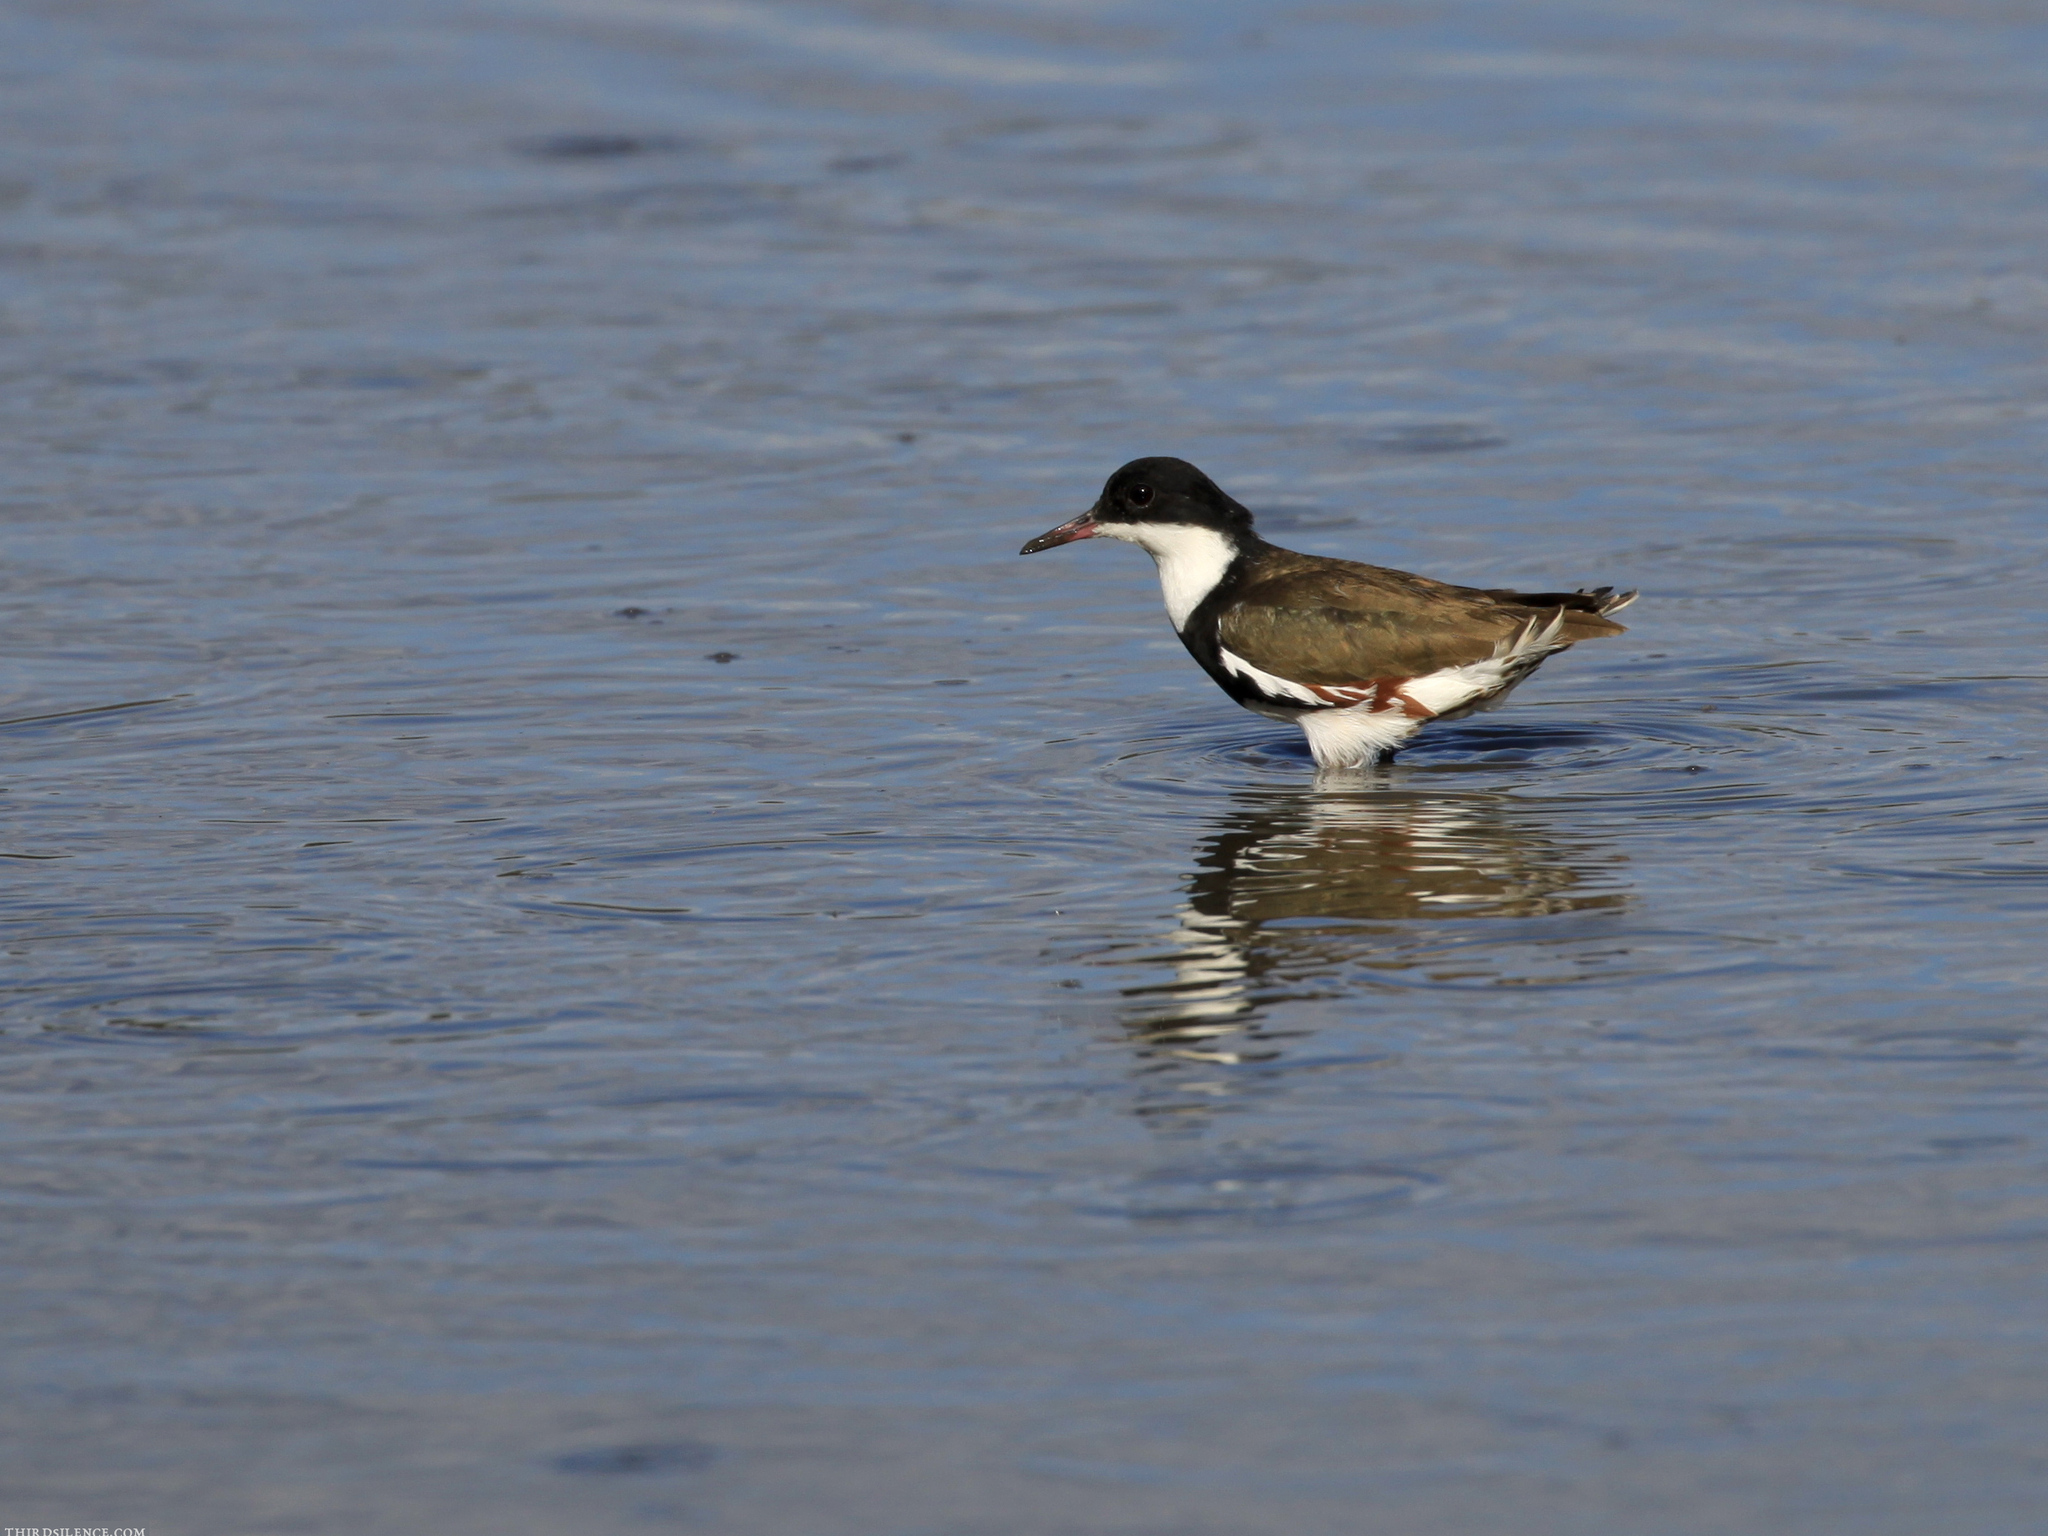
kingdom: Animalia
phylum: Chordata
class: Aves
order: Charadriiformes
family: Charadriidae
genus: Erythrogonys
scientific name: Erythrogonys cinctus
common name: Red-kneed dotterel
